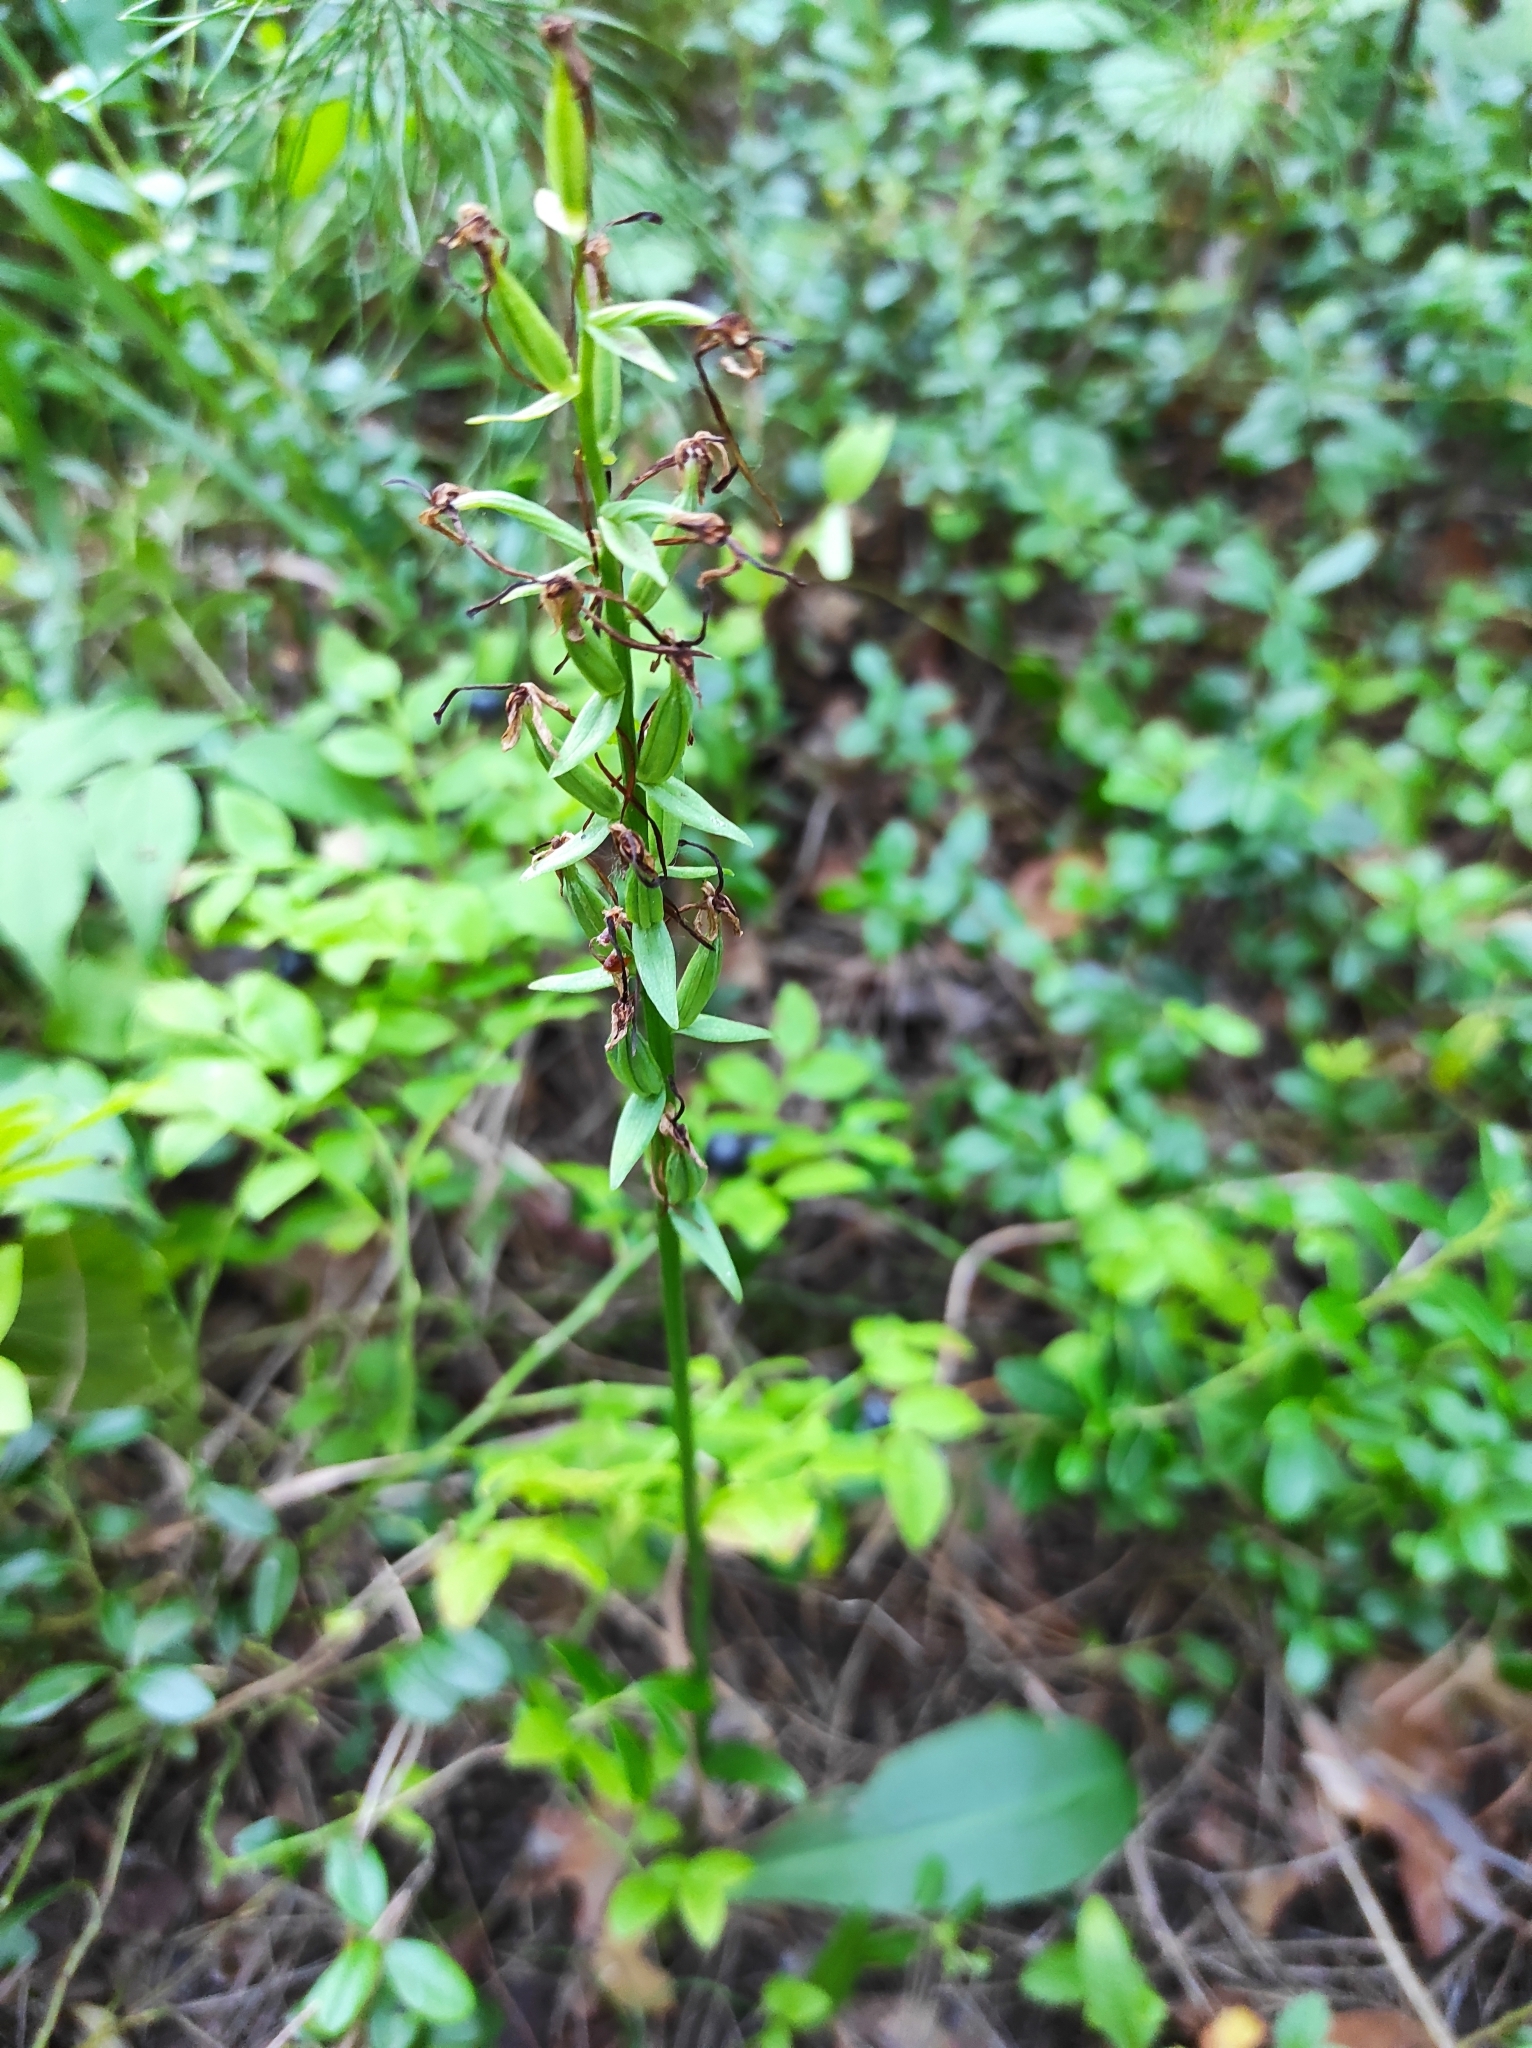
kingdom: Plantae
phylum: Tracheophyta
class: Liliopsida
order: Asparagales
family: Orchidaceae
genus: Platanthera
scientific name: Platanthera bifolia
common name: Lesser butterfly-orchid
